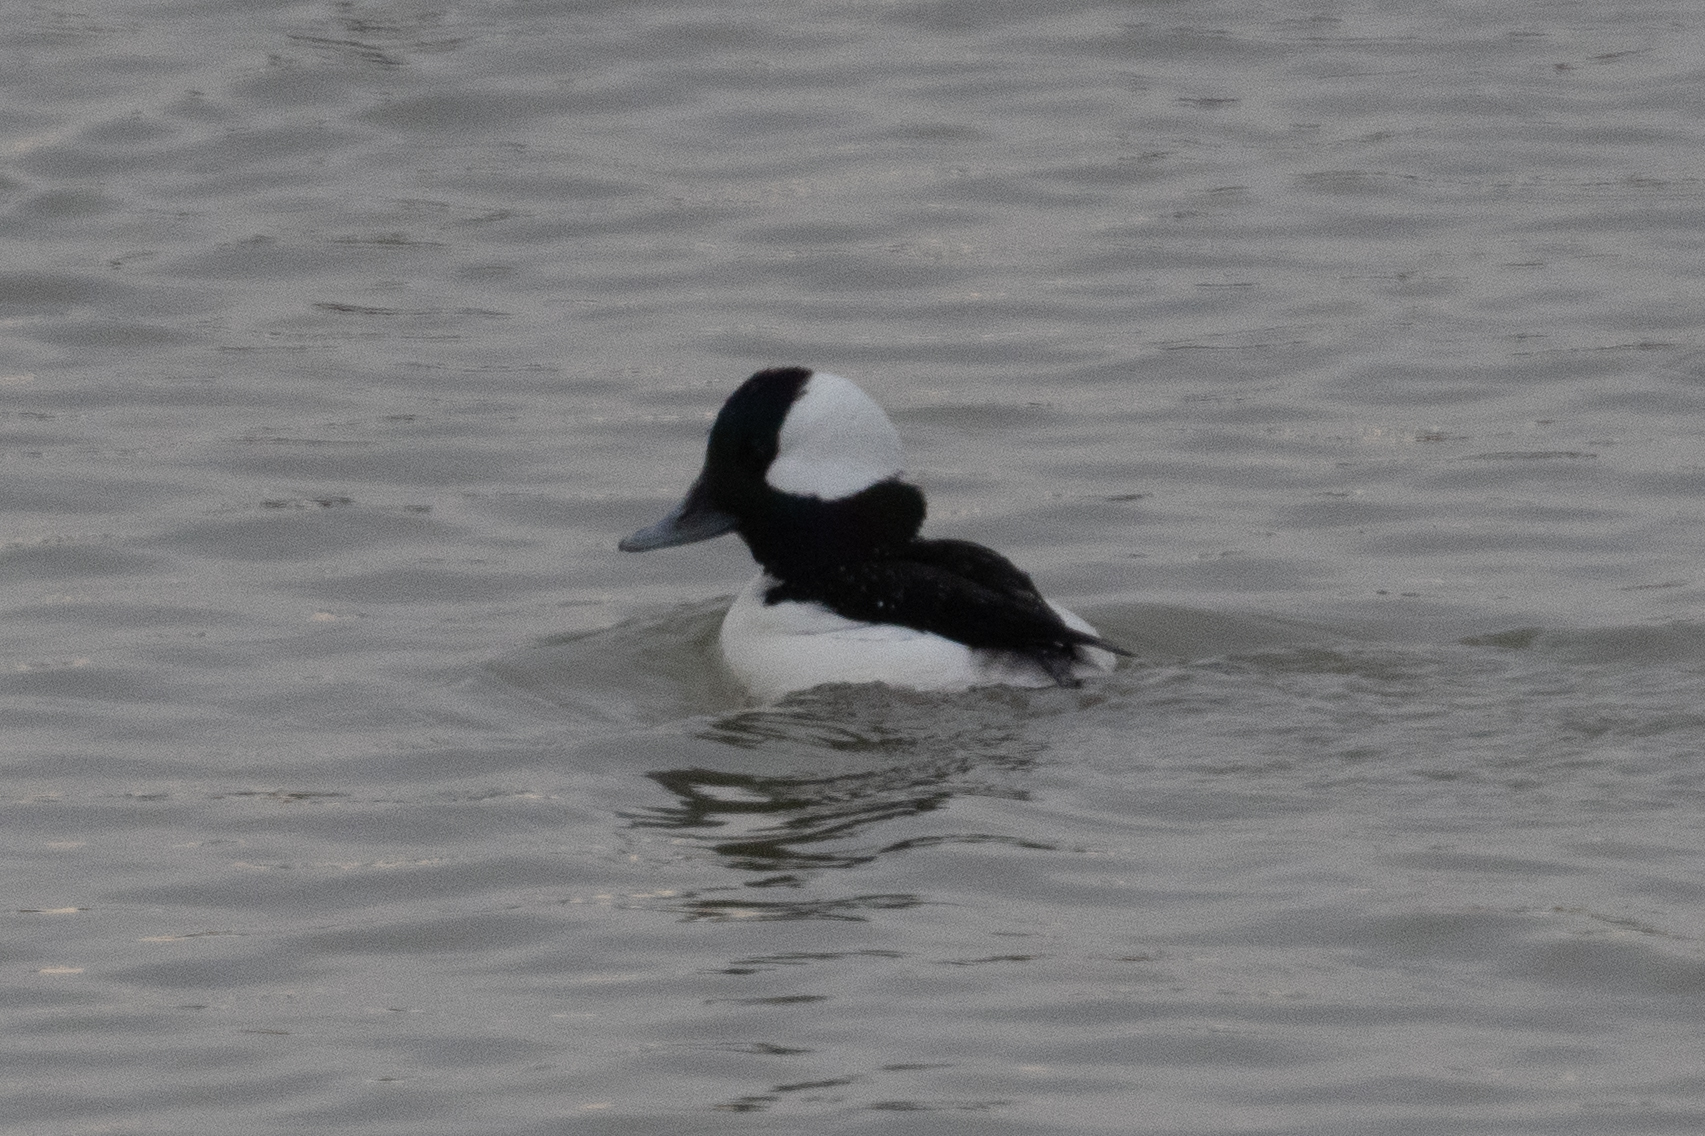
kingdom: Animalia
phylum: Chordata
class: Aves
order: Anseriformes
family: Anatidae
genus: Bucephala
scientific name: Bucephala albeola
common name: Bufflehead
